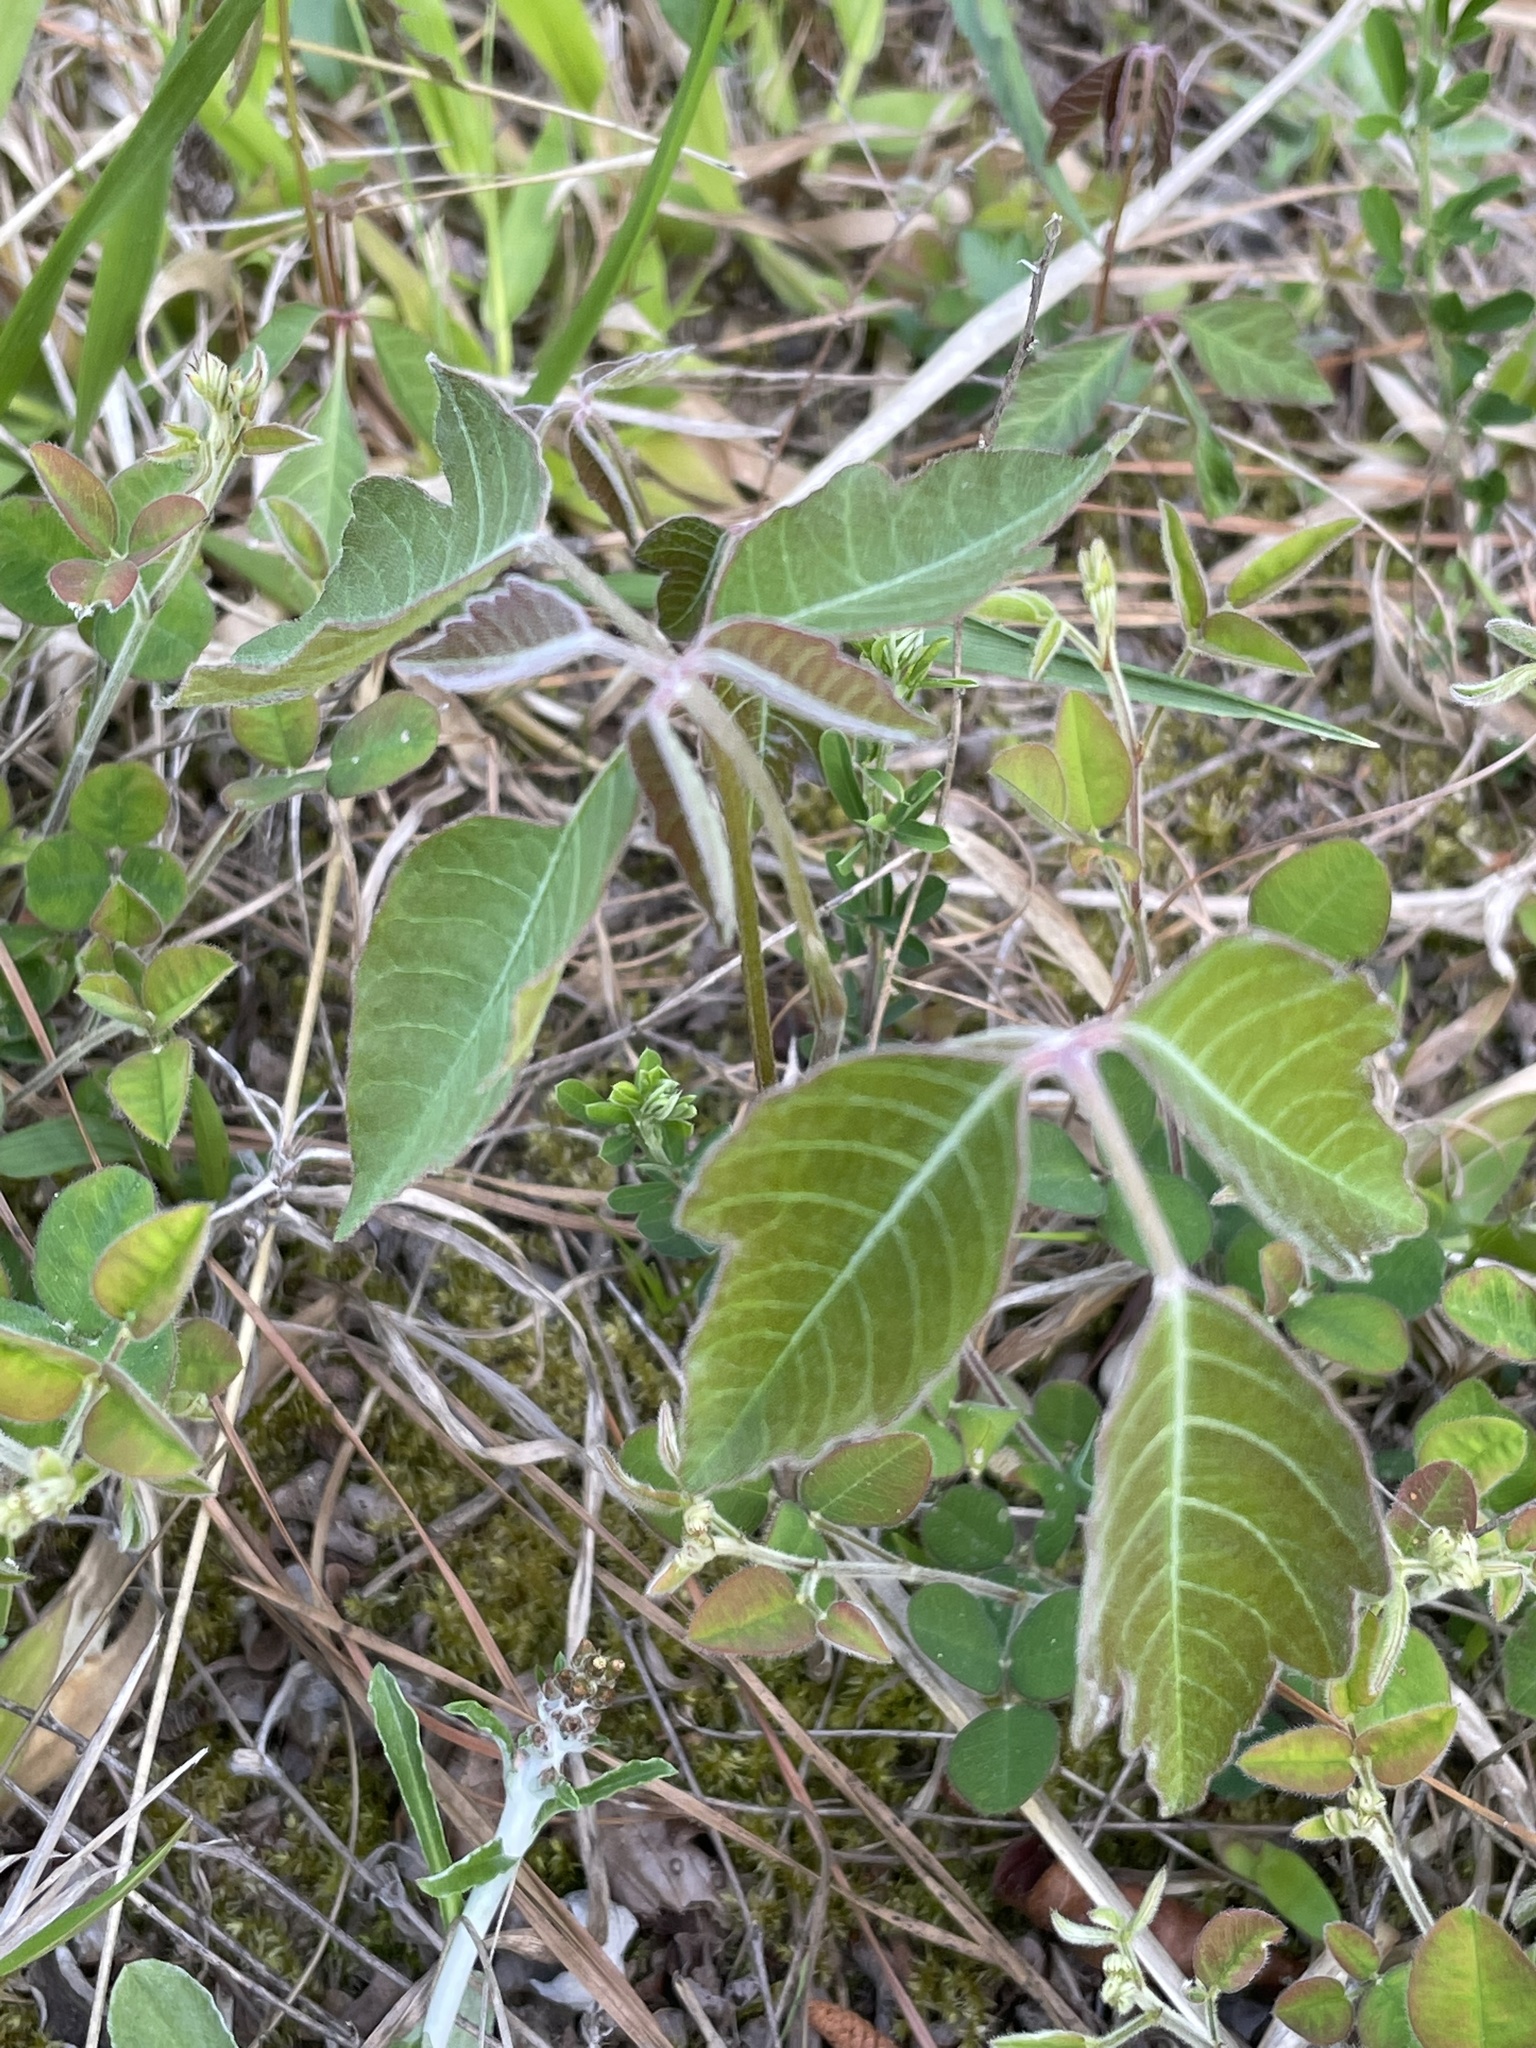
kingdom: Plantae
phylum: Tracheophyta
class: Magnoliopsida
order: Sapindales
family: Anacardiaceae
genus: Toxicodendron
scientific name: Toxicodendron pubescens
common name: Eastern poison-oak
